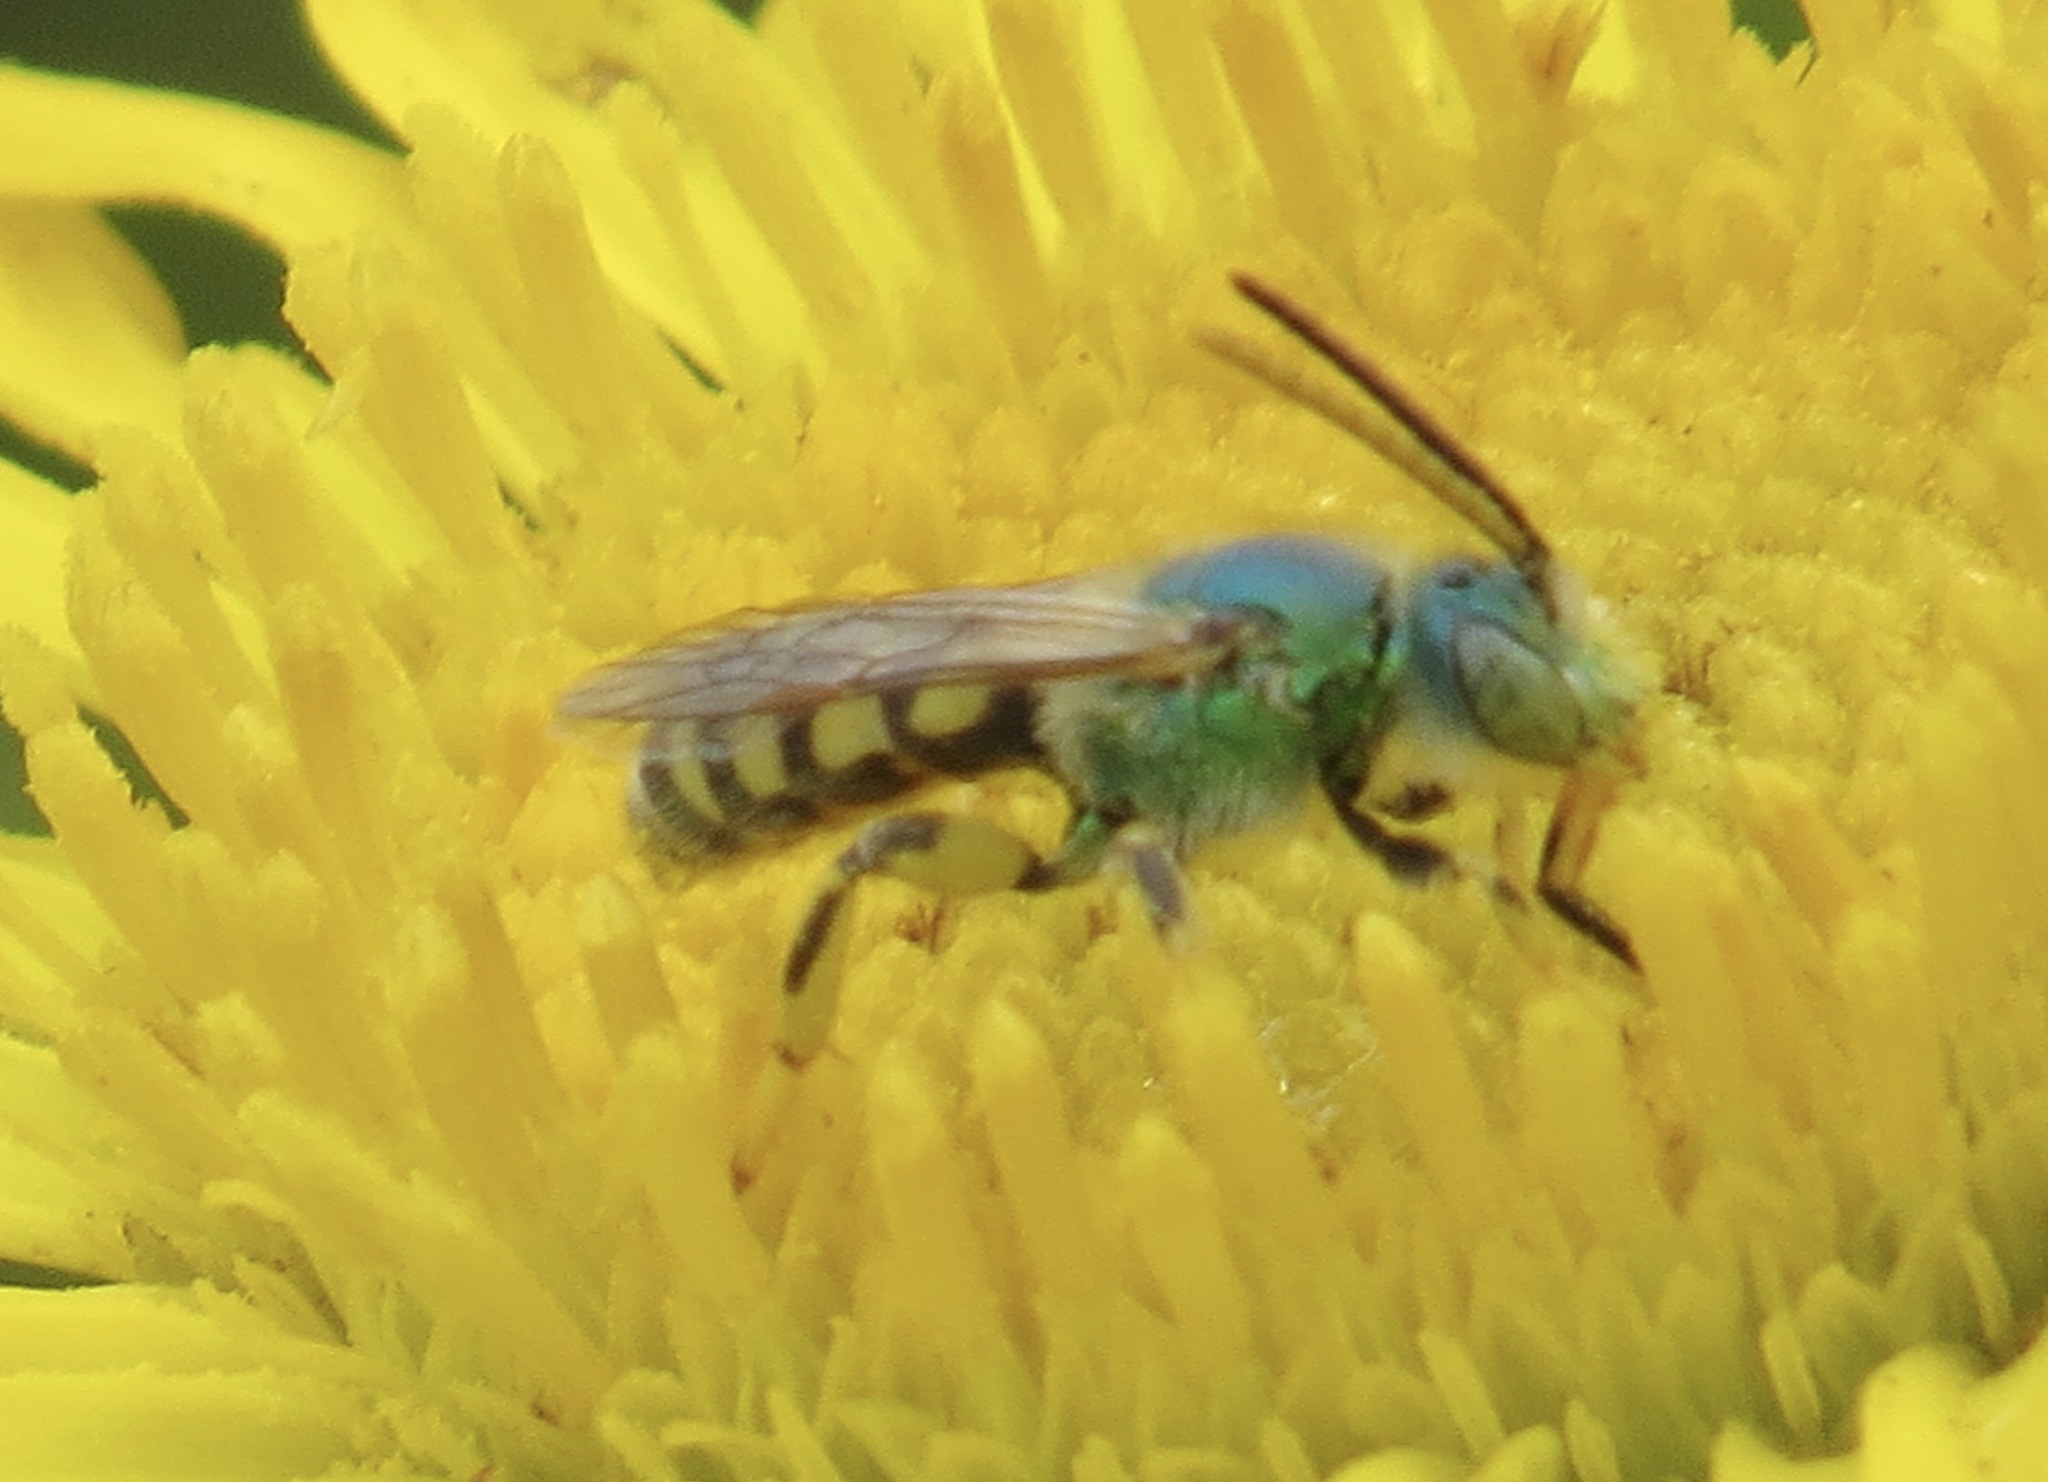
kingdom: Animalia
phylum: Arthropoda
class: Insecta
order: Hymenoptera
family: Halictidae
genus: Agapostemon
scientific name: Agapostemon texanus
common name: Texas striped sweat bee
